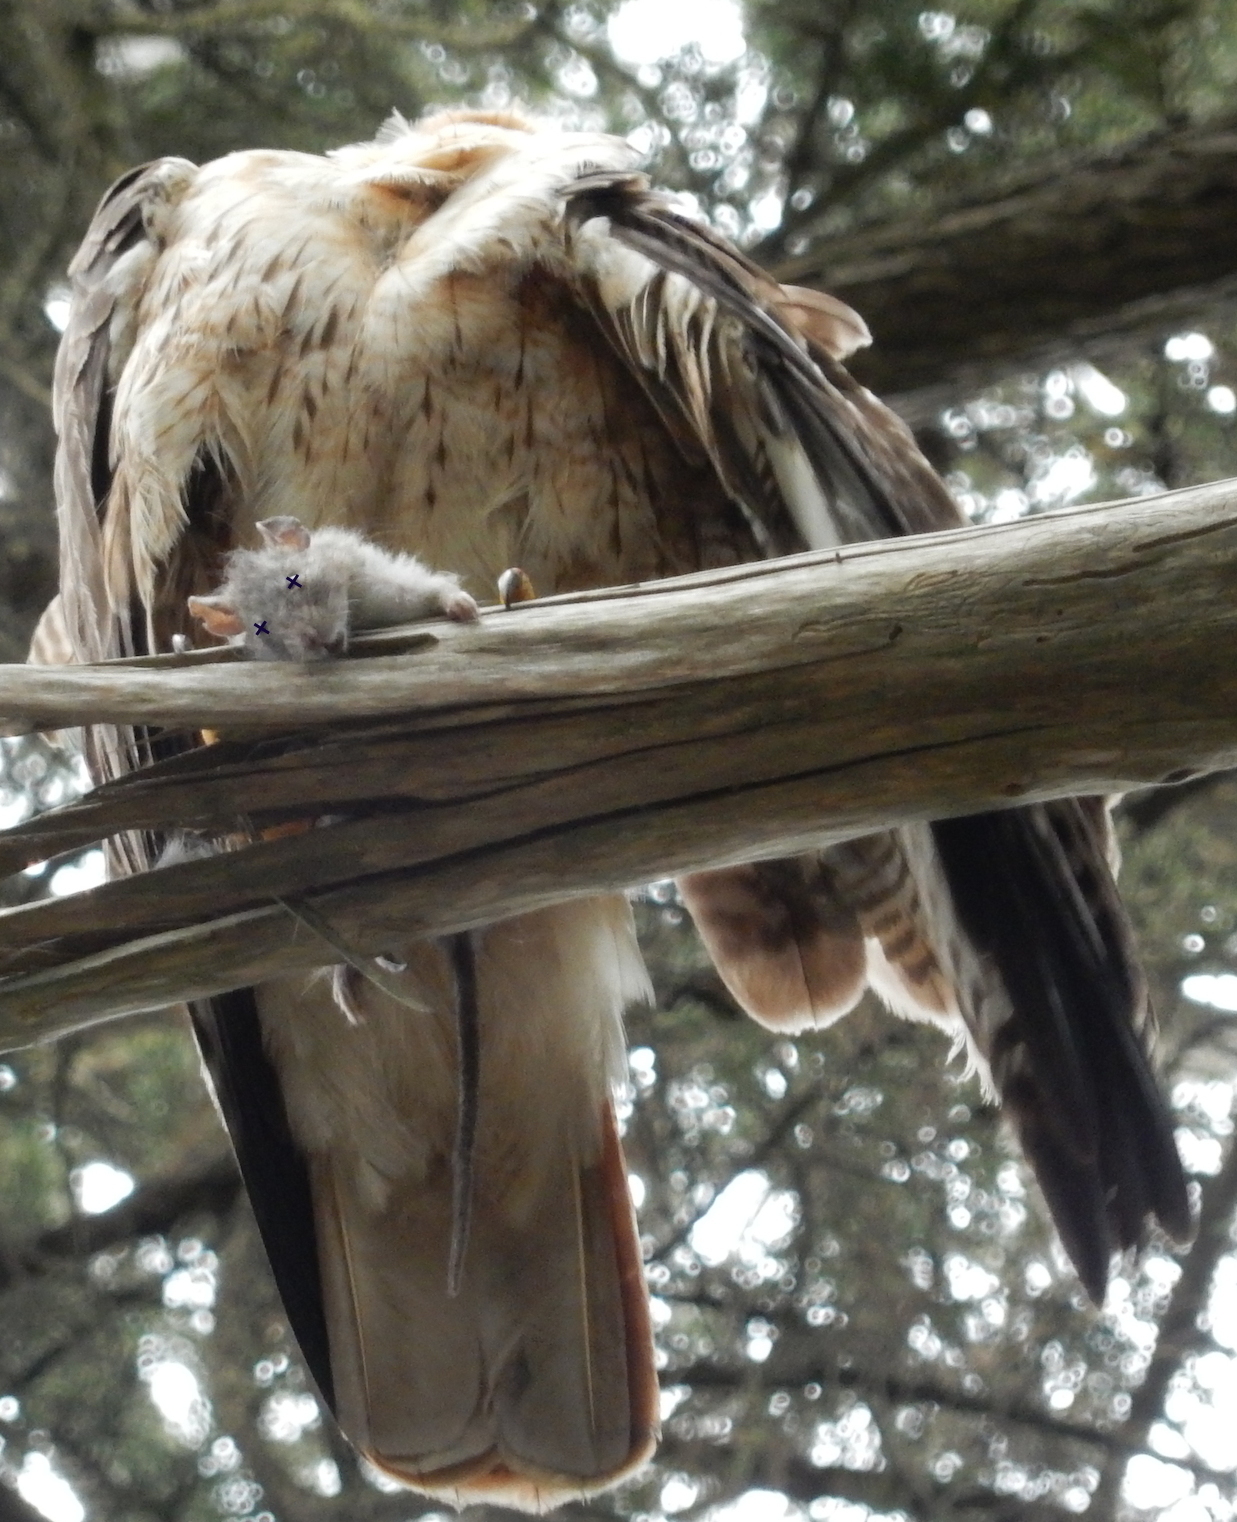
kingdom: Animalia
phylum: Chordata
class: Aves
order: Accipitriformes
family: Accipitridae
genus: Buteo
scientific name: Buteo jamaicensis
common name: Red-tailed hawk
